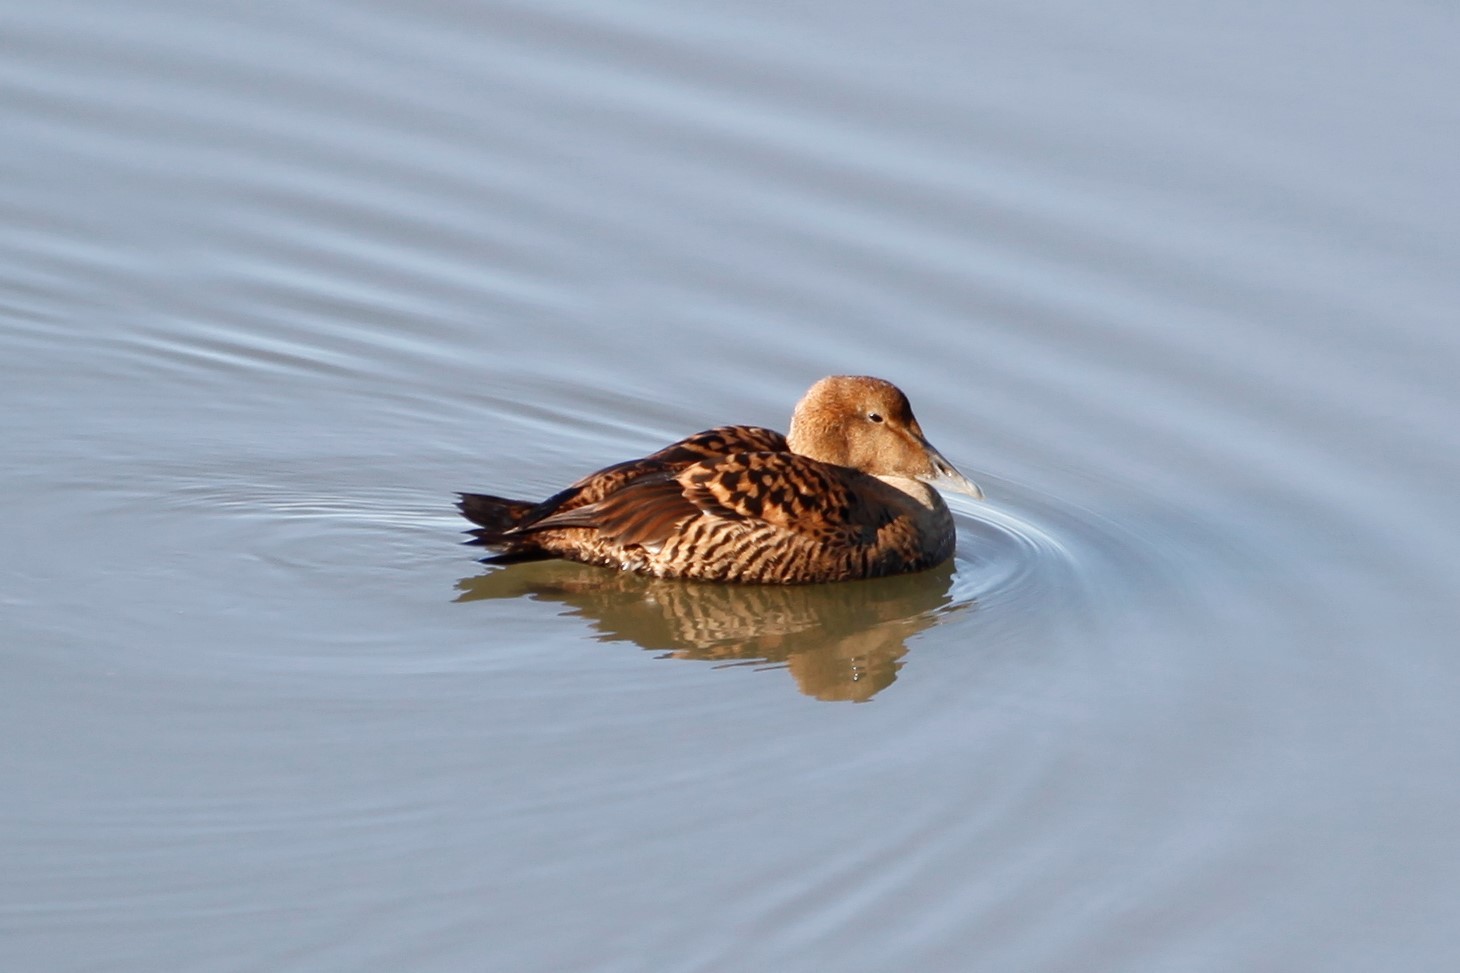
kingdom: Animalia
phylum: Chordata
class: Aves
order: Anseriformes
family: Anatidae
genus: Somateria
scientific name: Somateria mollissima
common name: Common eider
